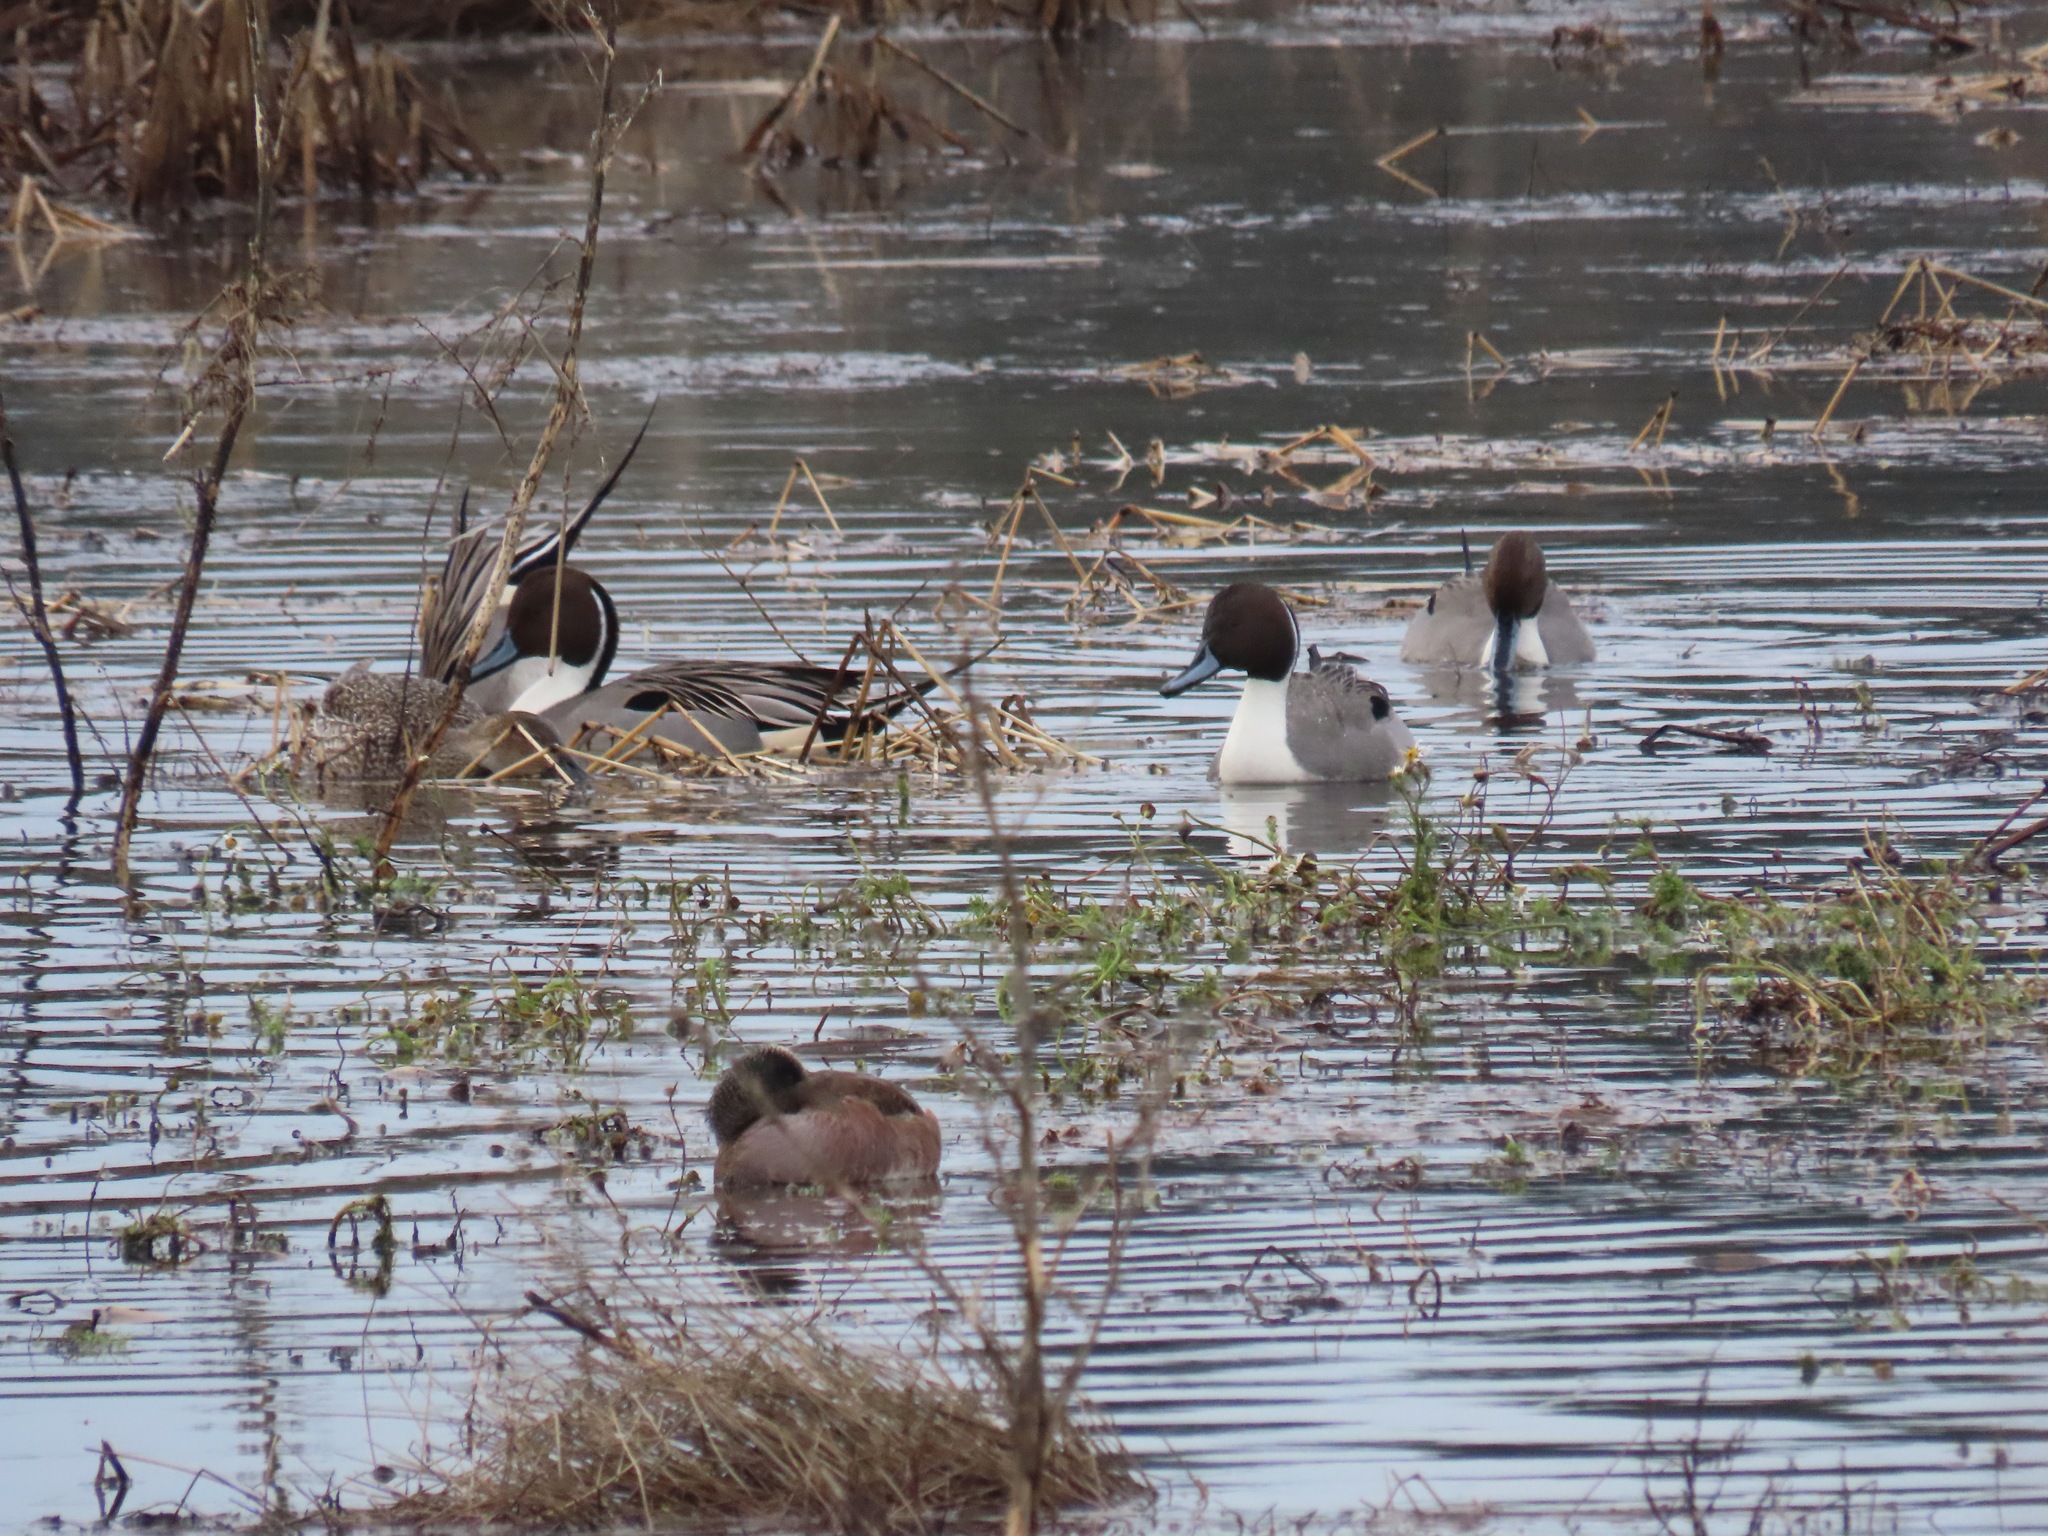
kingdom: Animalia
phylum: Chordata
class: Aves
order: Anseriformes
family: Anatidae
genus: Anas
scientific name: Anas acuta
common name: Northern pintail
